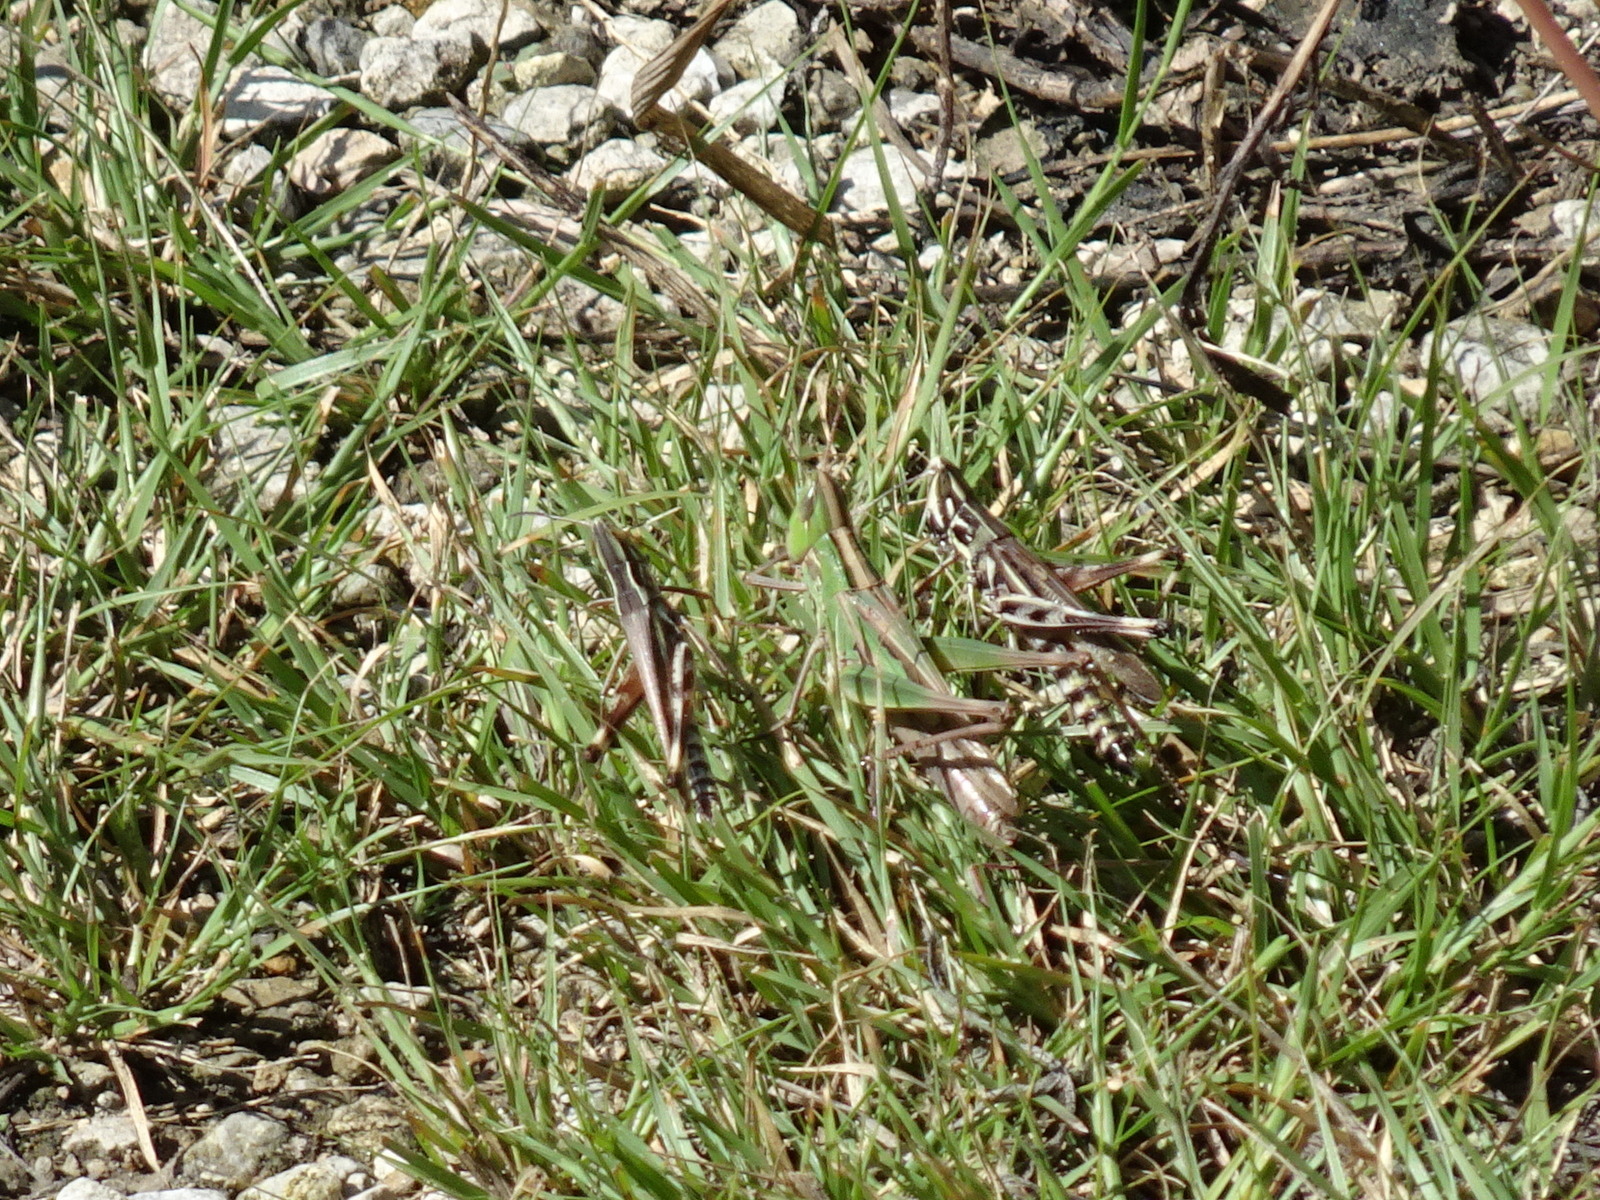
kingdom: Animalia
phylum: Arthropoda
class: Insecta
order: Orthoptera
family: Acrididae
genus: Syrbula
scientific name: Syrbula admirabilis
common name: Handsome grasshopper
